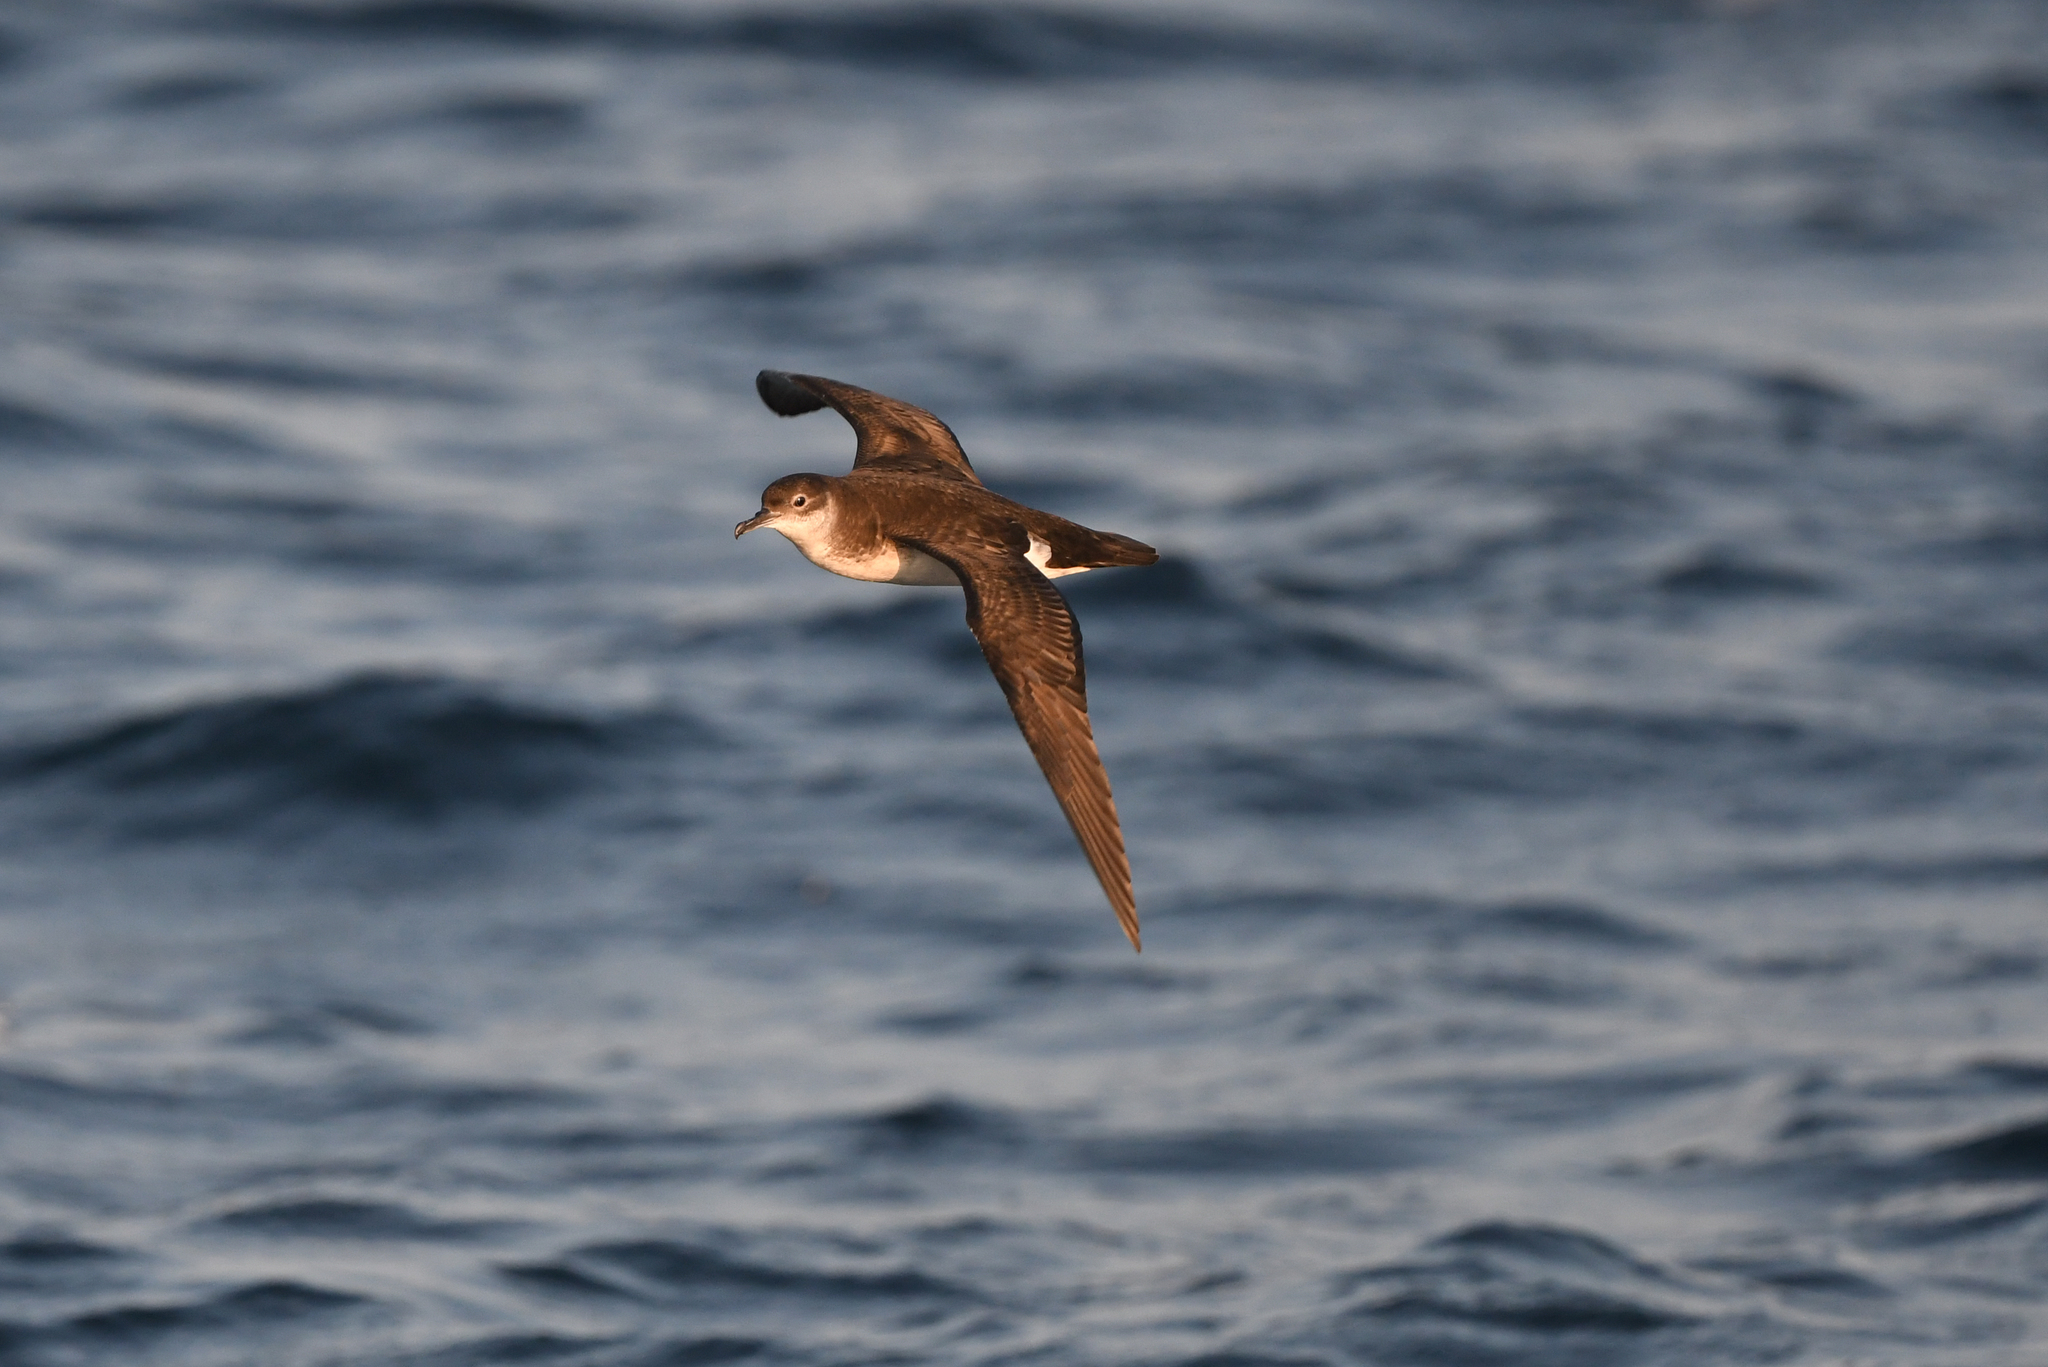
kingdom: Animalia
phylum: Chordata
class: Aves
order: Procellariiformes
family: Procellariidae
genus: Puffinus
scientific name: Puffinus puffinus
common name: Manx shearwater
